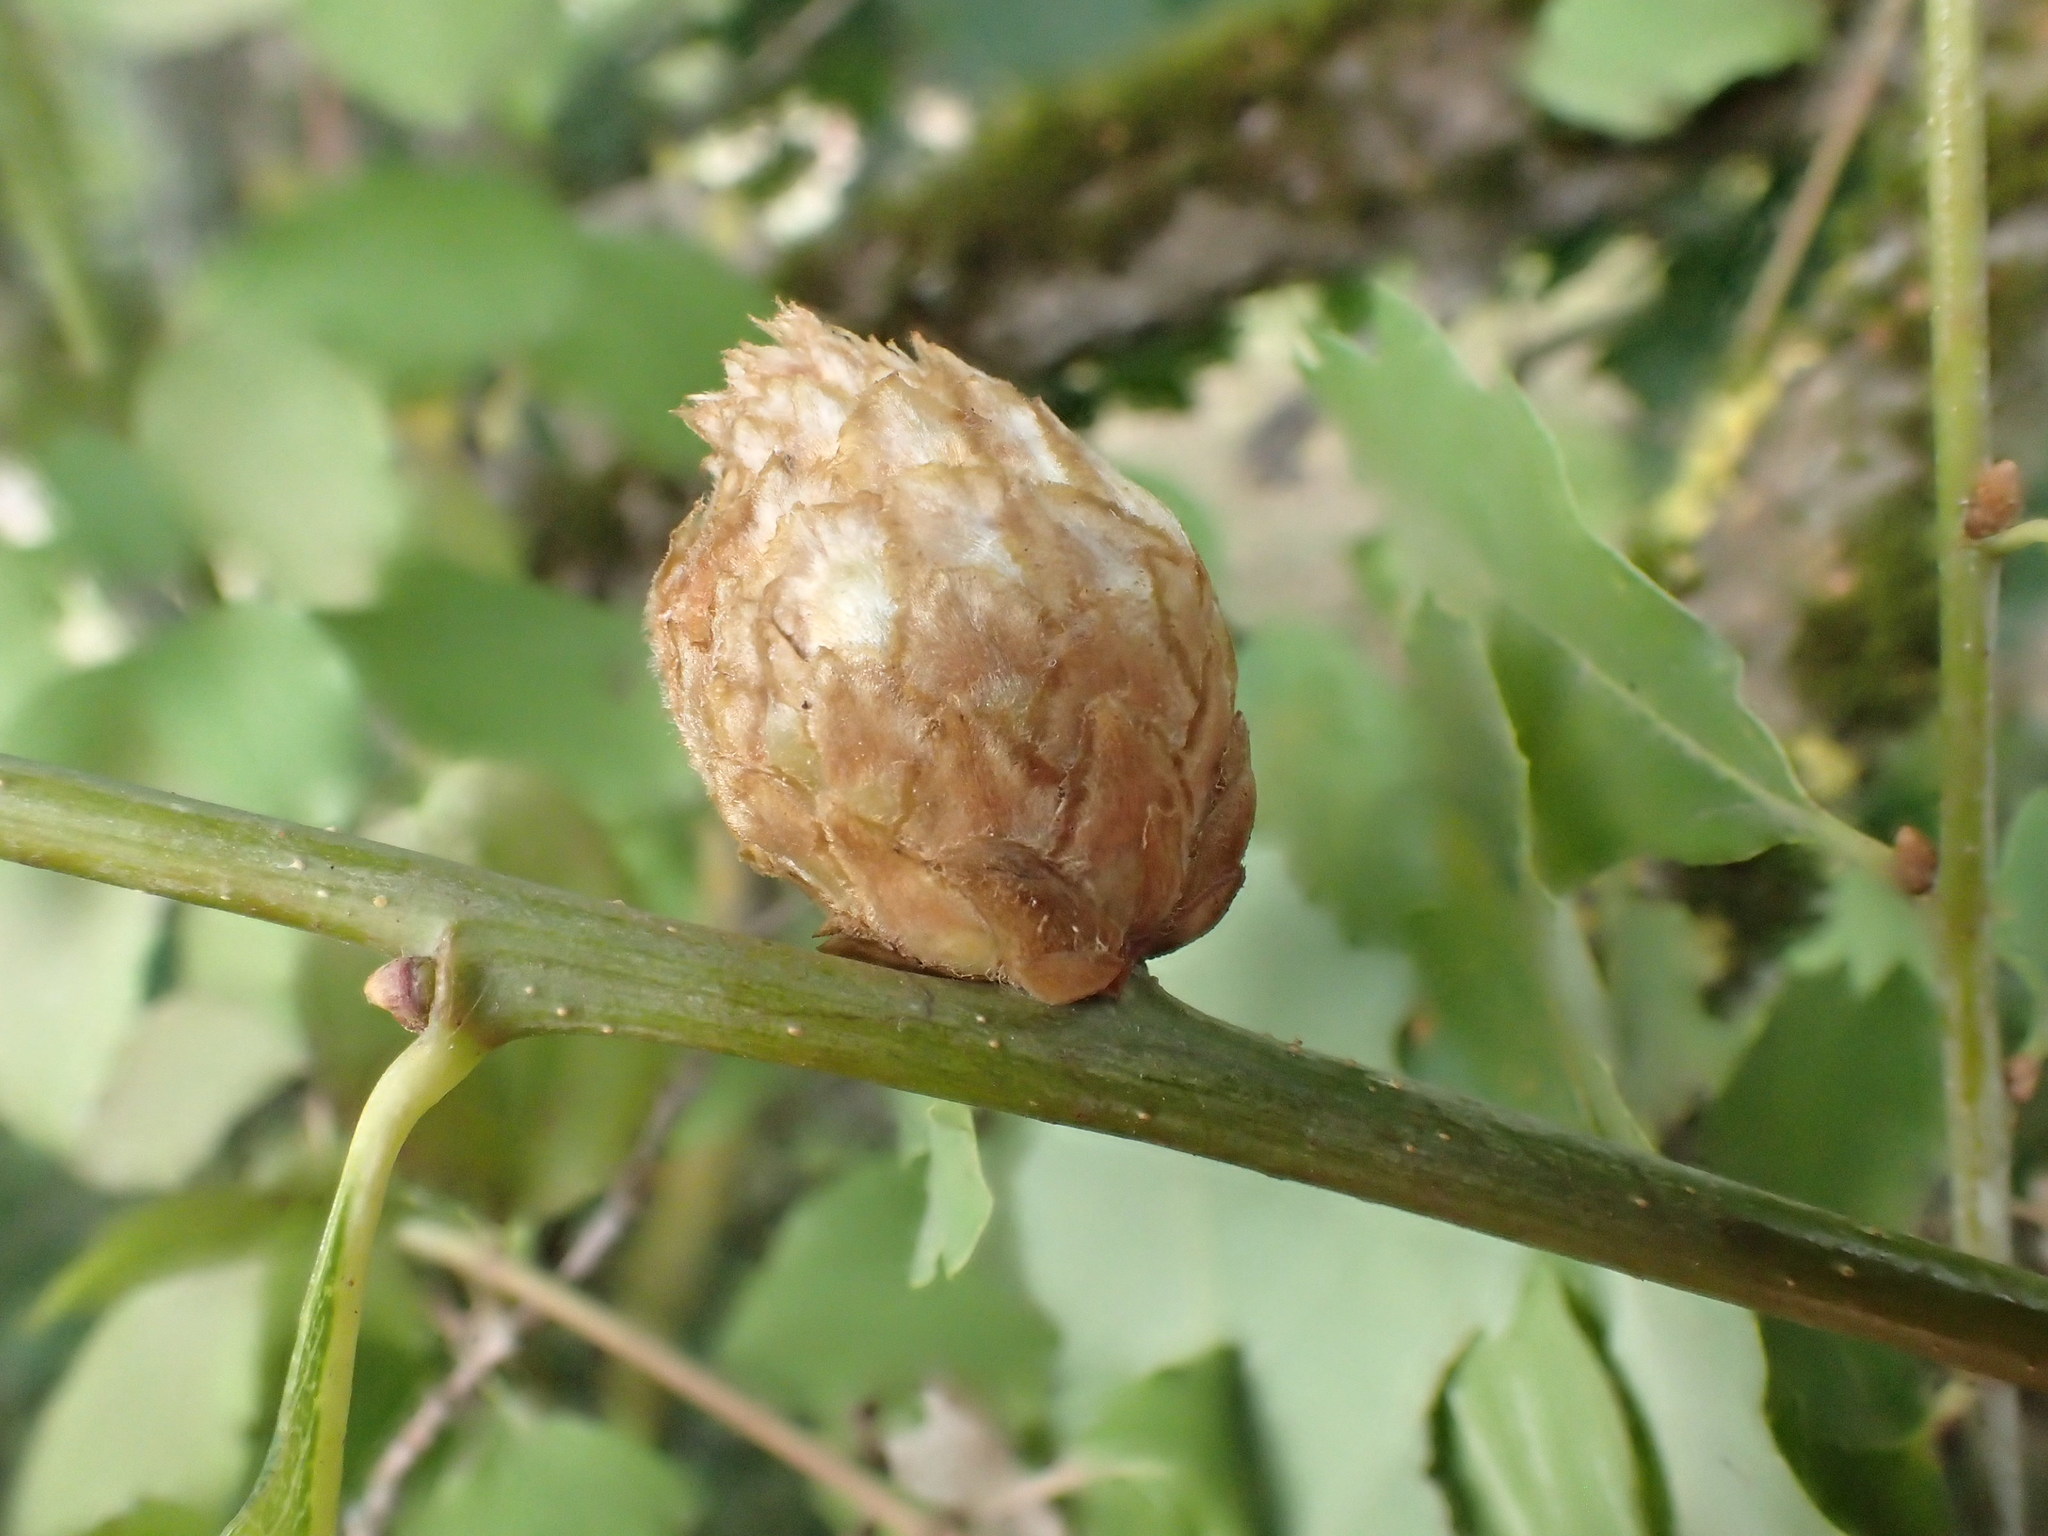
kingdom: Animalia
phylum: Arthropoda
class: Insecta
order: Hymenoptera
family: Cynipidae
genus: Andricus
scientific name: Andricus foecundatrix
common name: Artichoke gall
